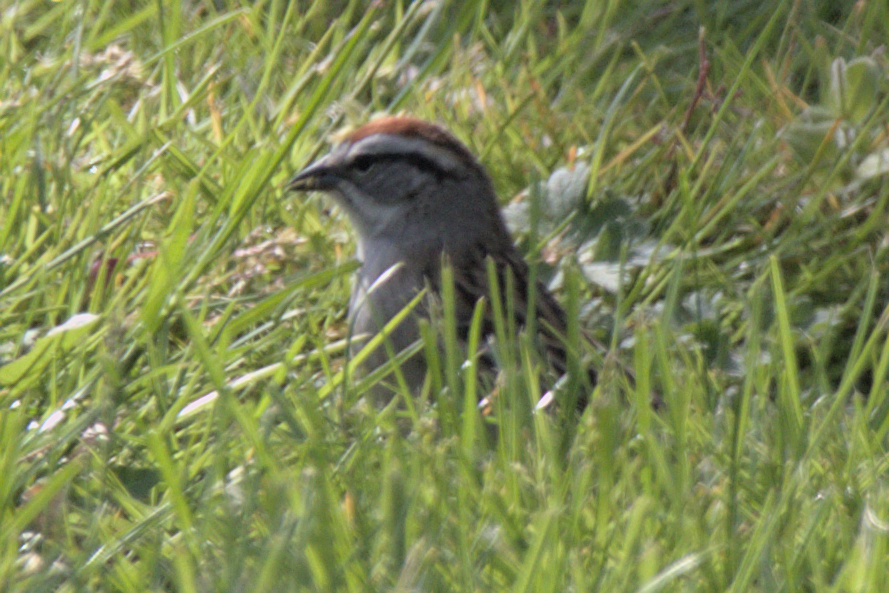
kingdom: Animalia
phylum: Chordata
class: Aves
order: Passeriformes
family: Passerellidae
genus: Spizella
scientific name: Spizella passerina
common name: Chipping sparrow
